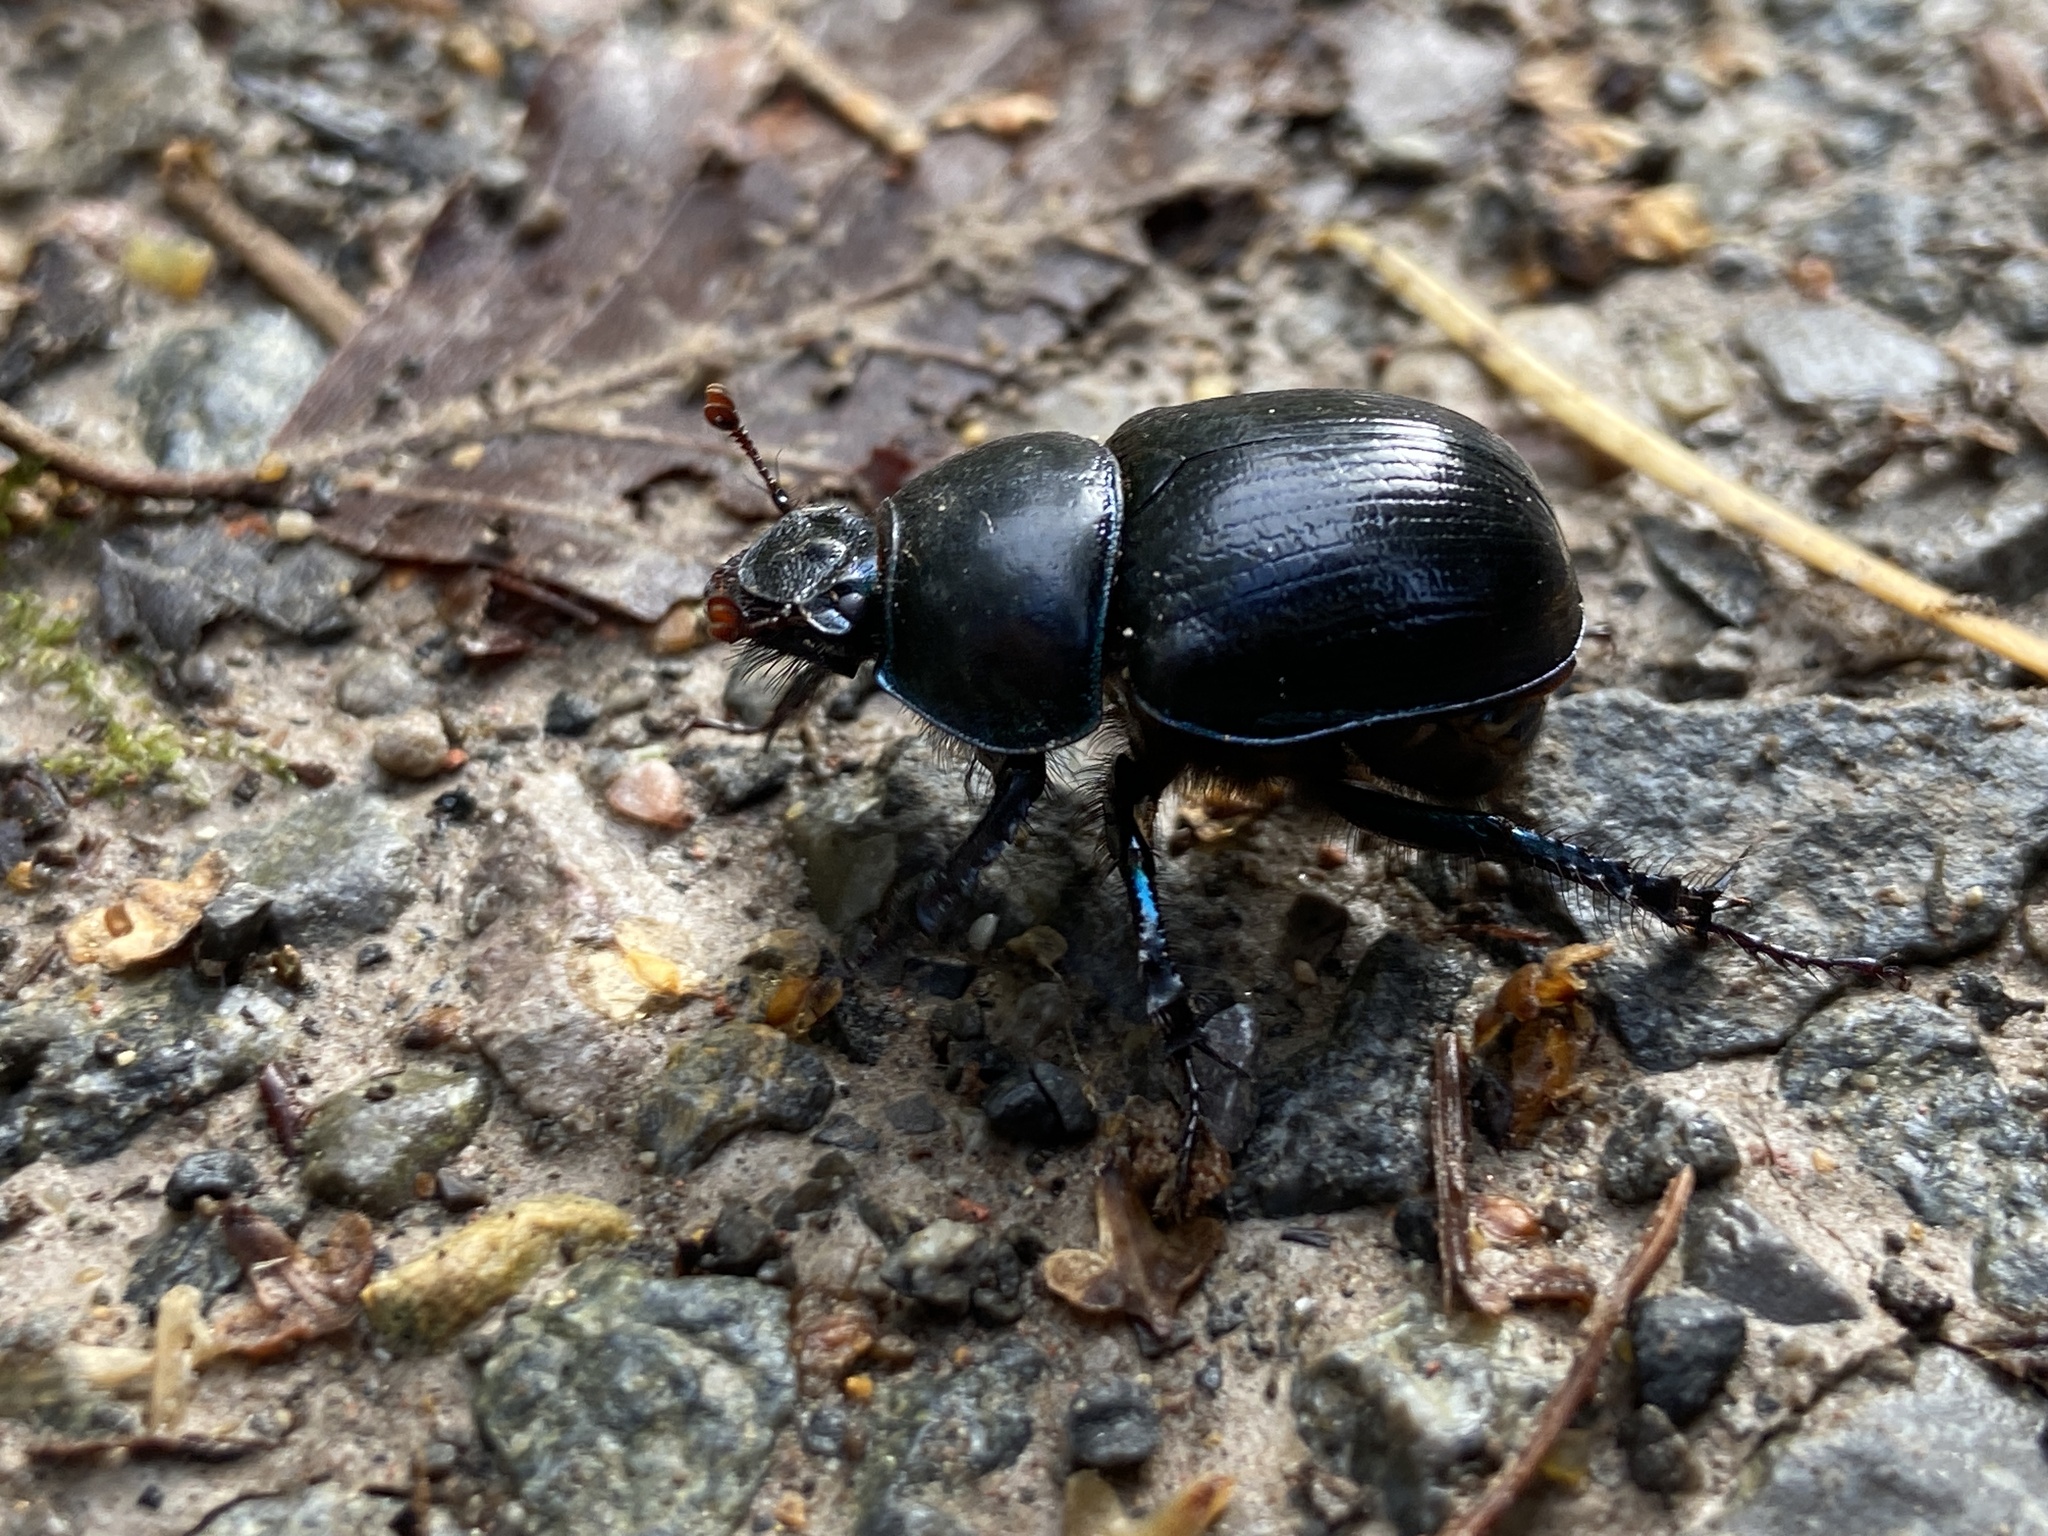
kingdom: Animalia
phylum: Arthropoda
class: Insecta
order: Coleoptera
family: Geotrupidae
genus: Anoplotrupes
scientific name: Anoplotrupes stercorosus
